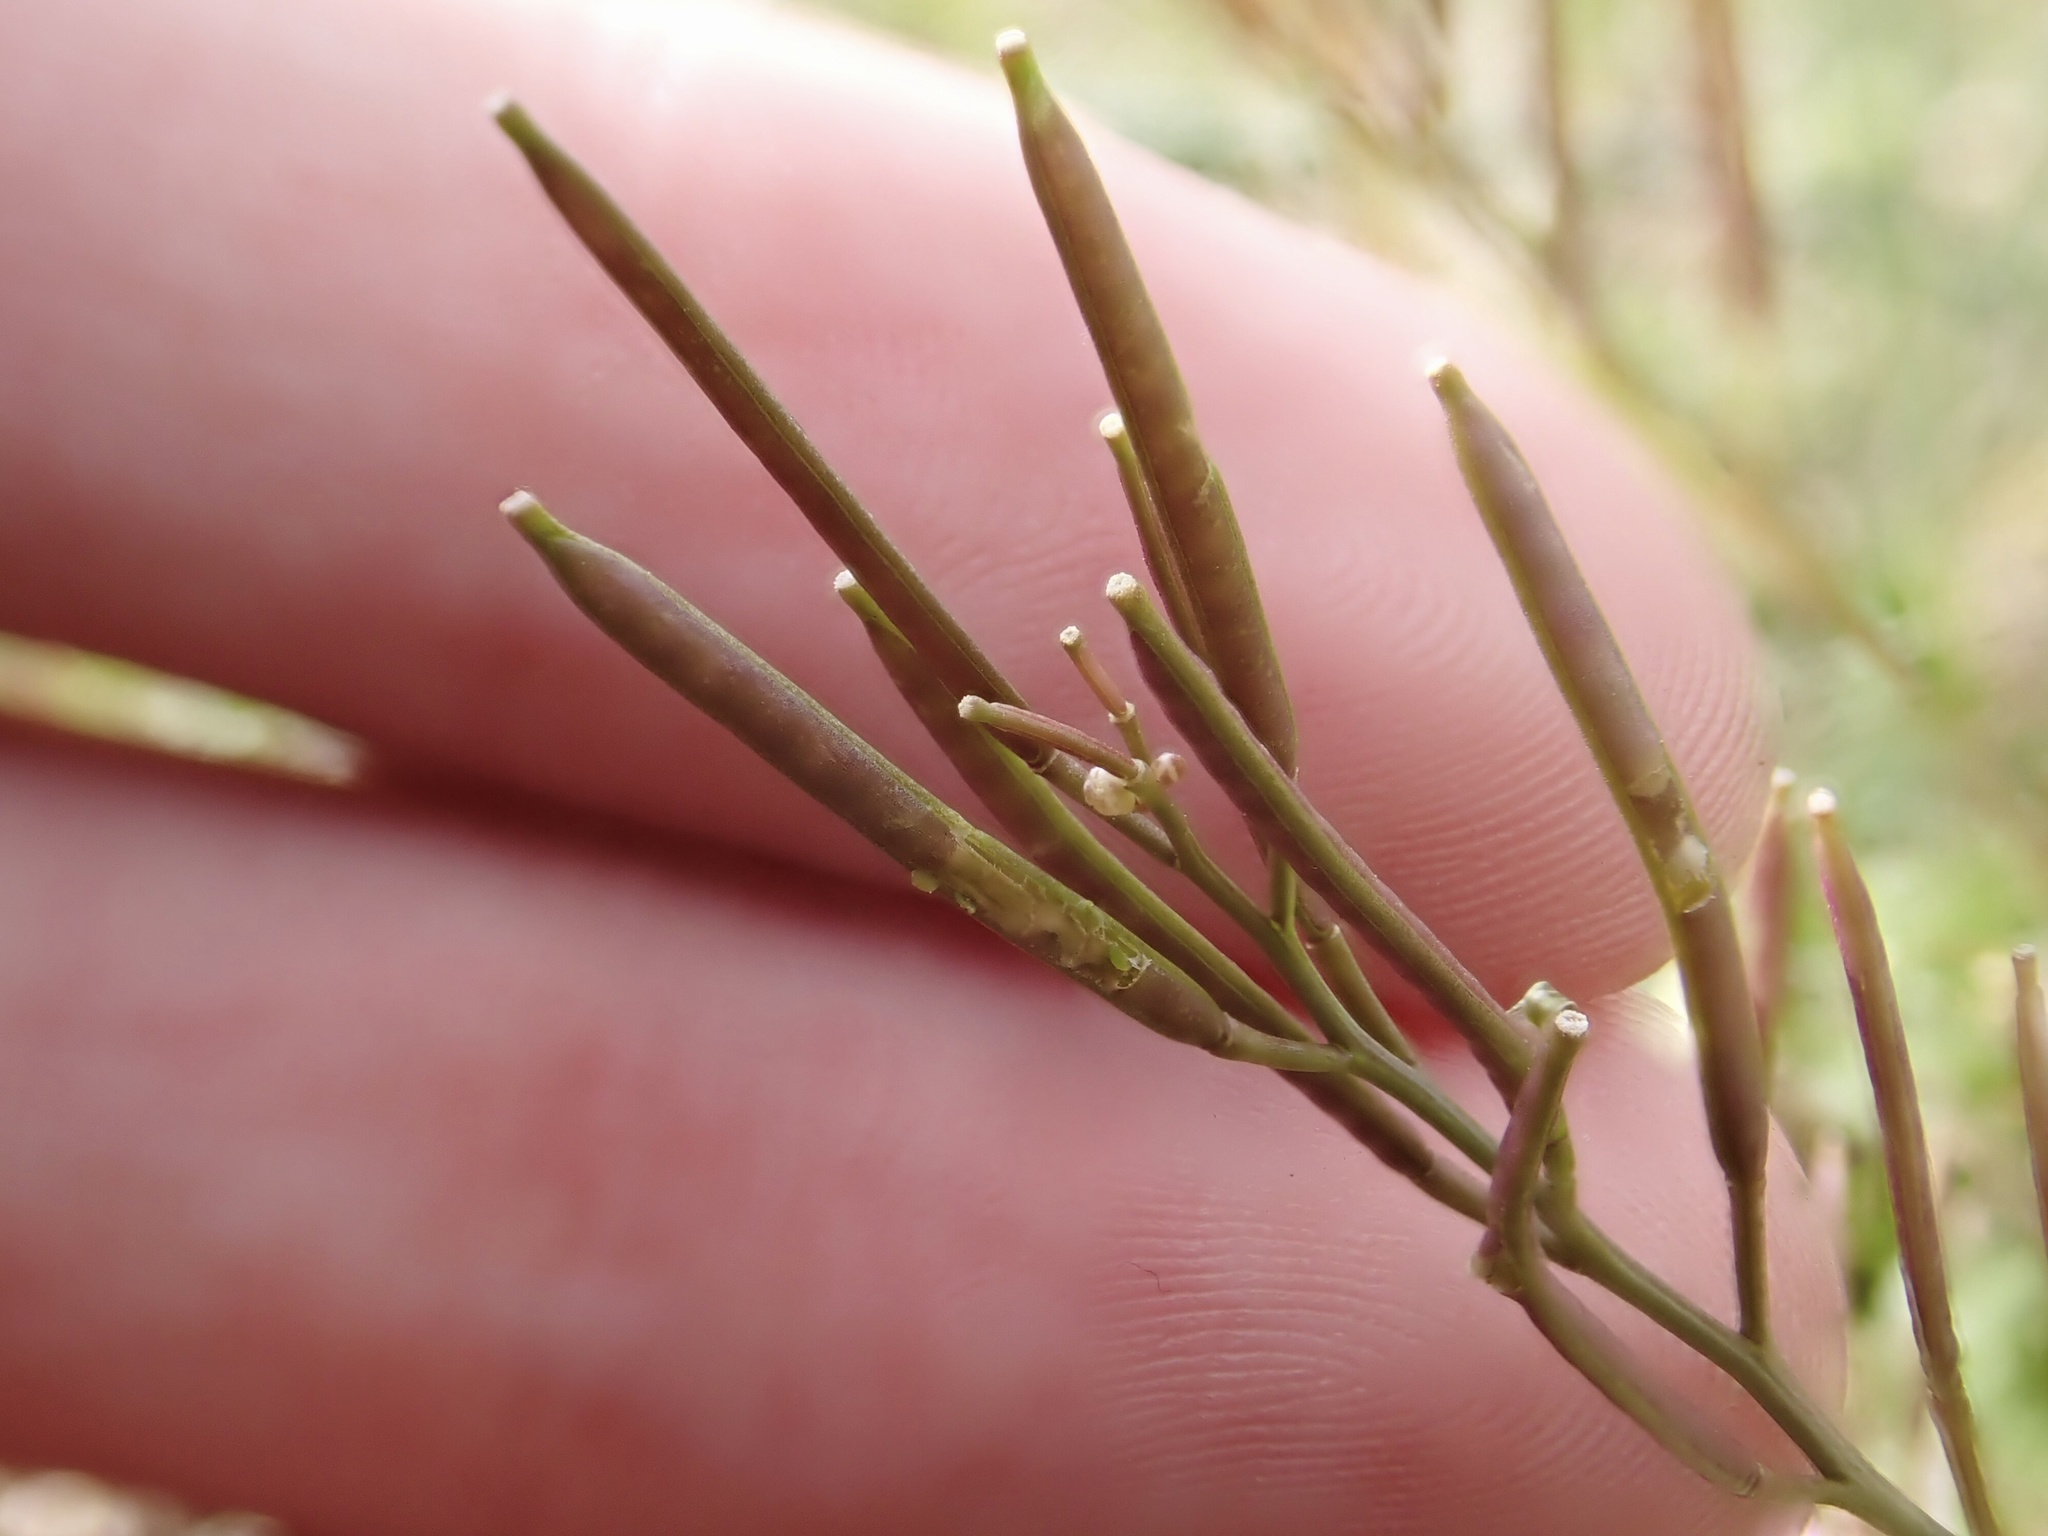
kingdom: Plantae
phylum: Tracheophyta
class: Magnoliopsida
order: Brassicales
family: Brassicaceae
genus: Cardamine
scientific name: Cardamine hirsuta
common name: Hairy bittercress
